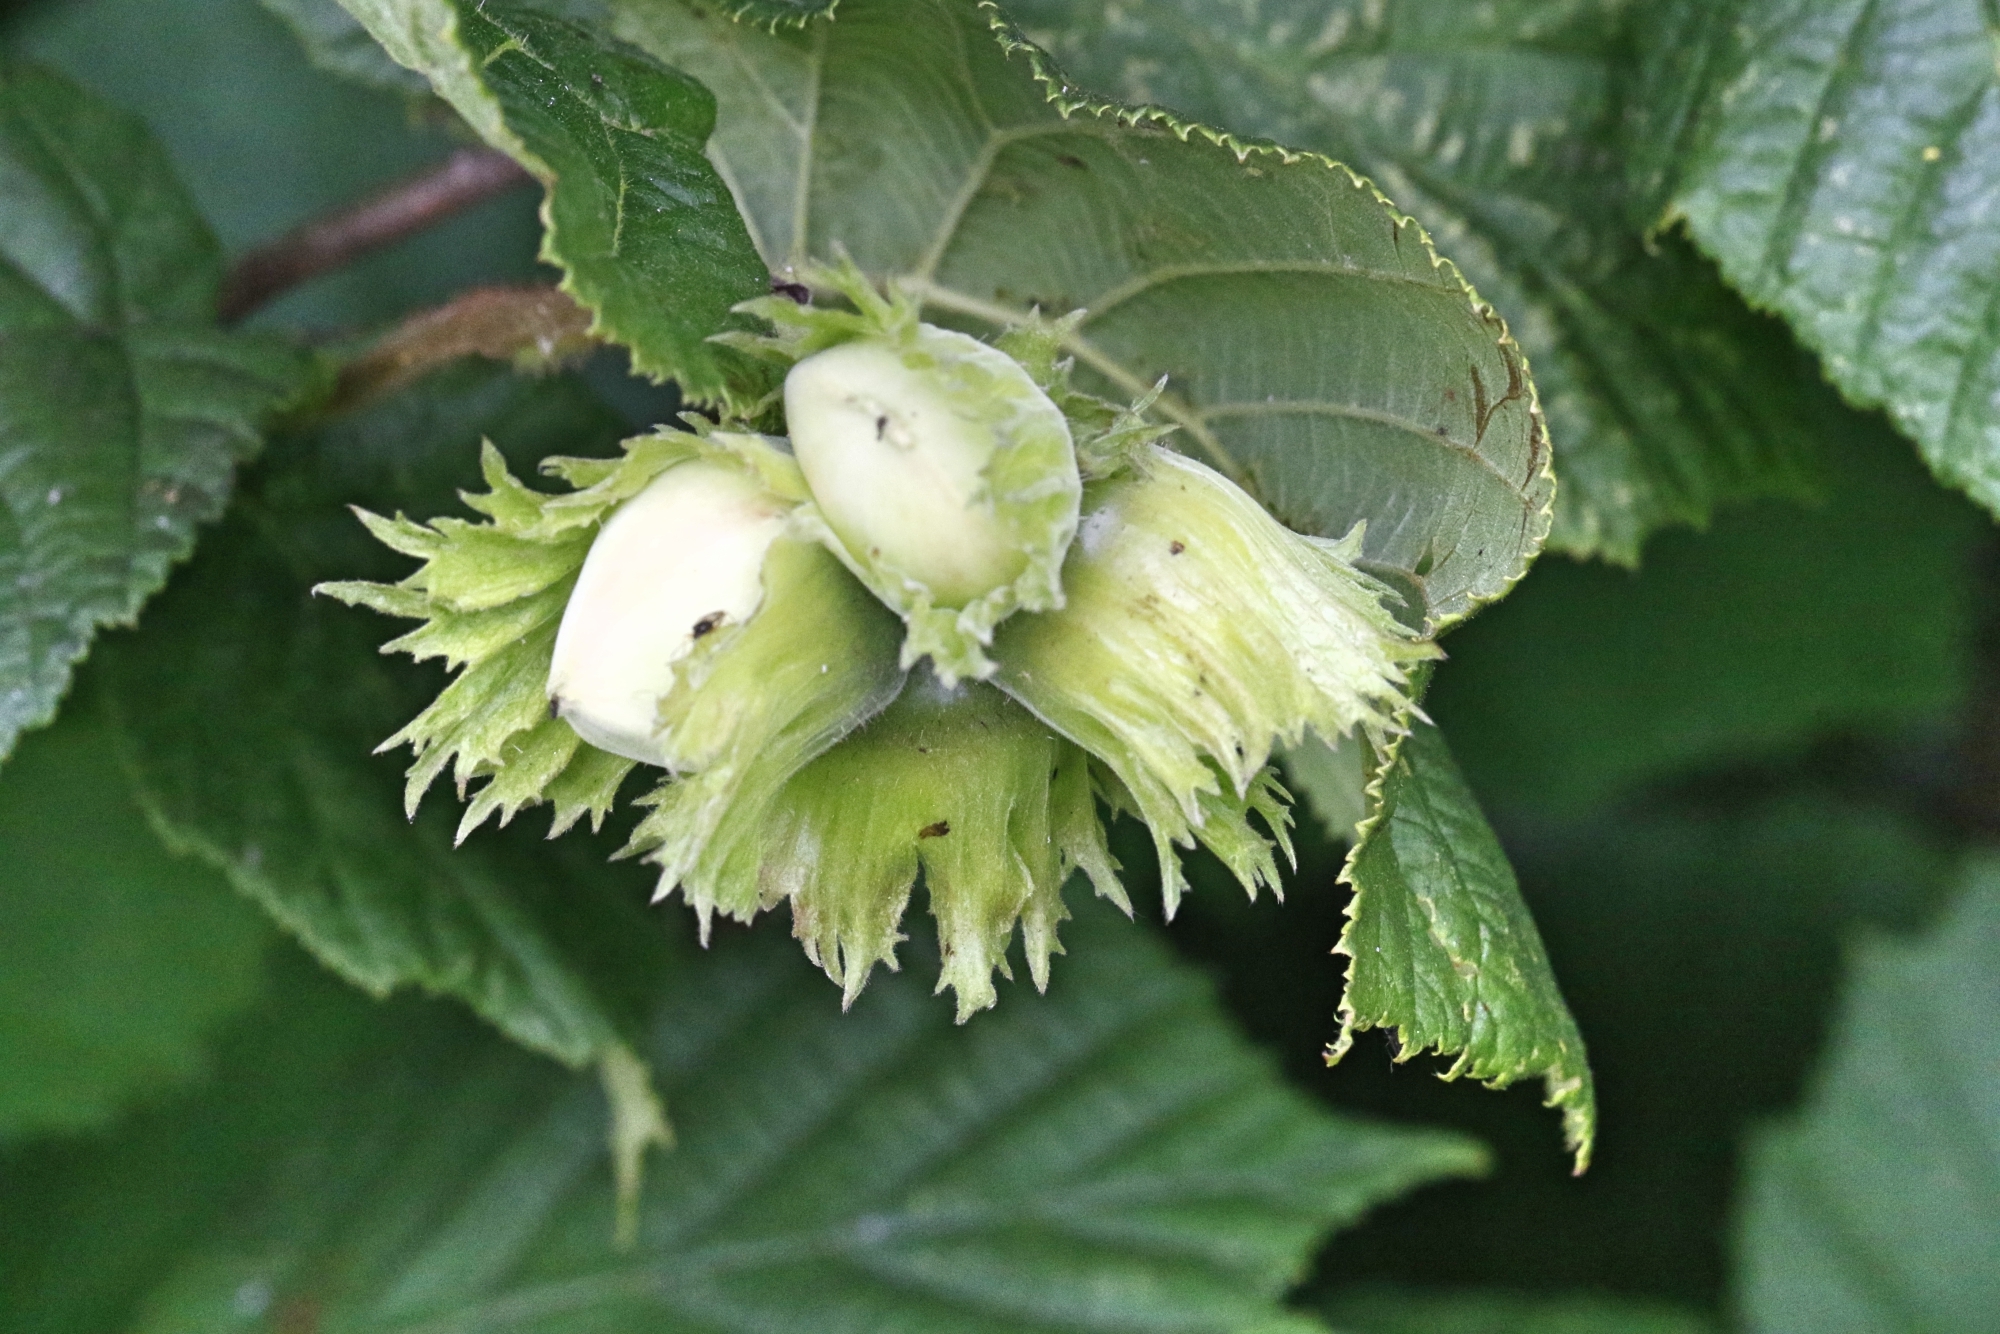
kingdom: Plantae
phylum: Tracheophyta
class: Magnoliopsida
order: Fagales
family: Betulaceae
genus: Corylus
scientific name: Corylus avellana
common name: European hazel
